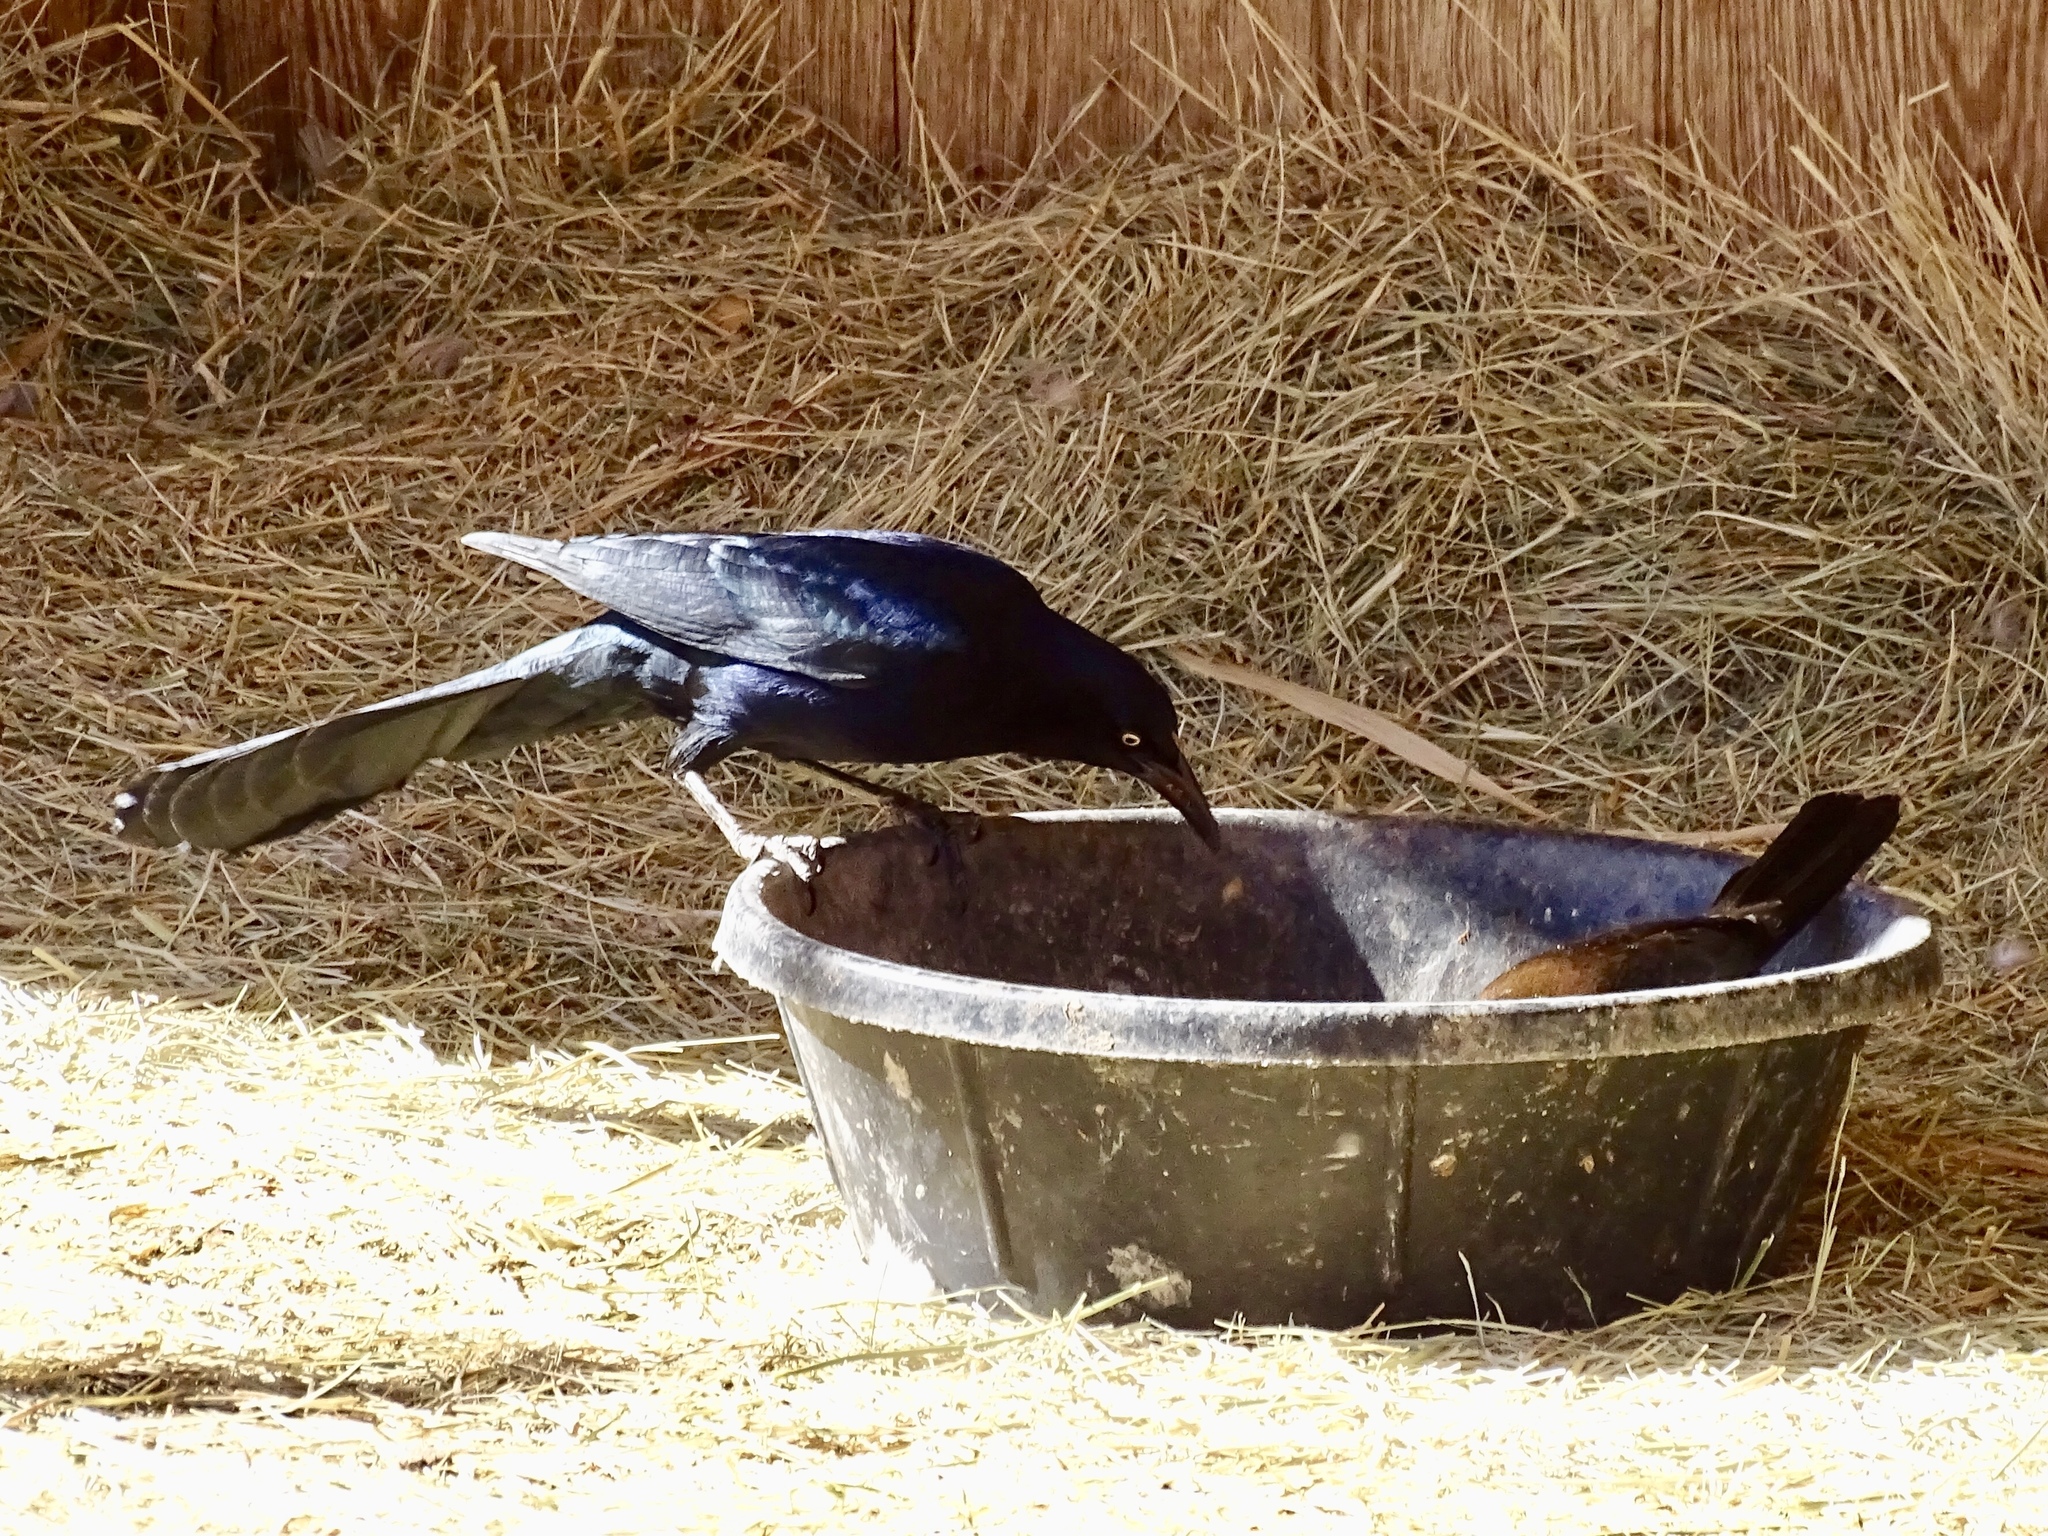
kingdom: Animalia
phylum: Chordata
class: Aves
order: Passeriformes
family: Icteridae
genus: Quiscalus
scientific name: Quiscalus mexicanus
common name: Great-tailed grackle
